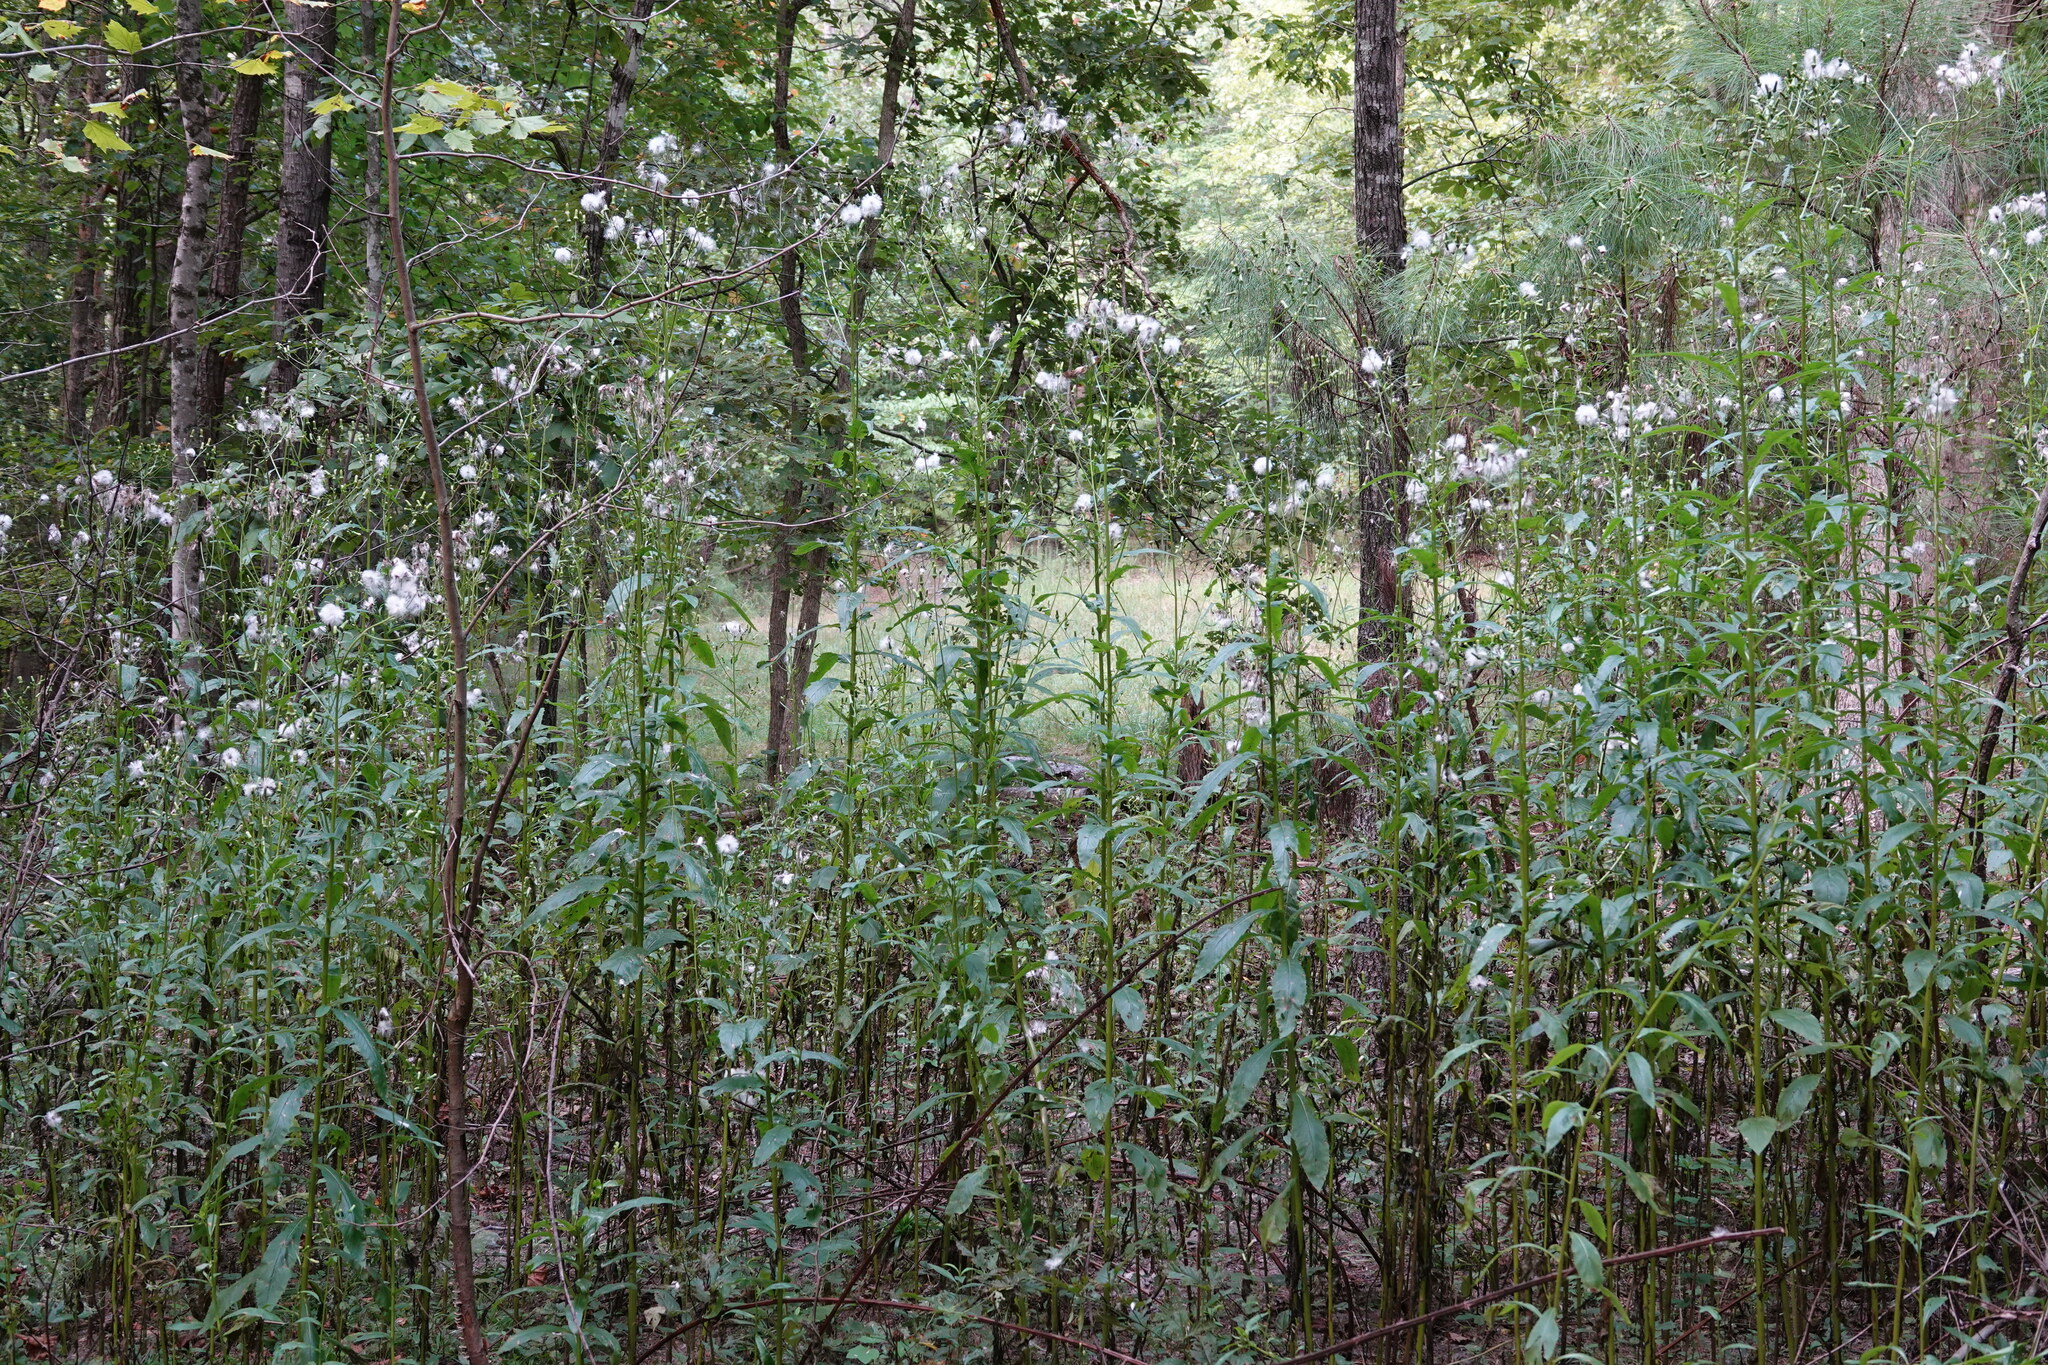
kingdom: Plantae
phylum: Tracheophyta
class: Magnoliopsida
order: Asterales
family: Asteraceae
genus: Erechtites
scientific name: Erechtites hieraciifolius
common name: American burnweed
